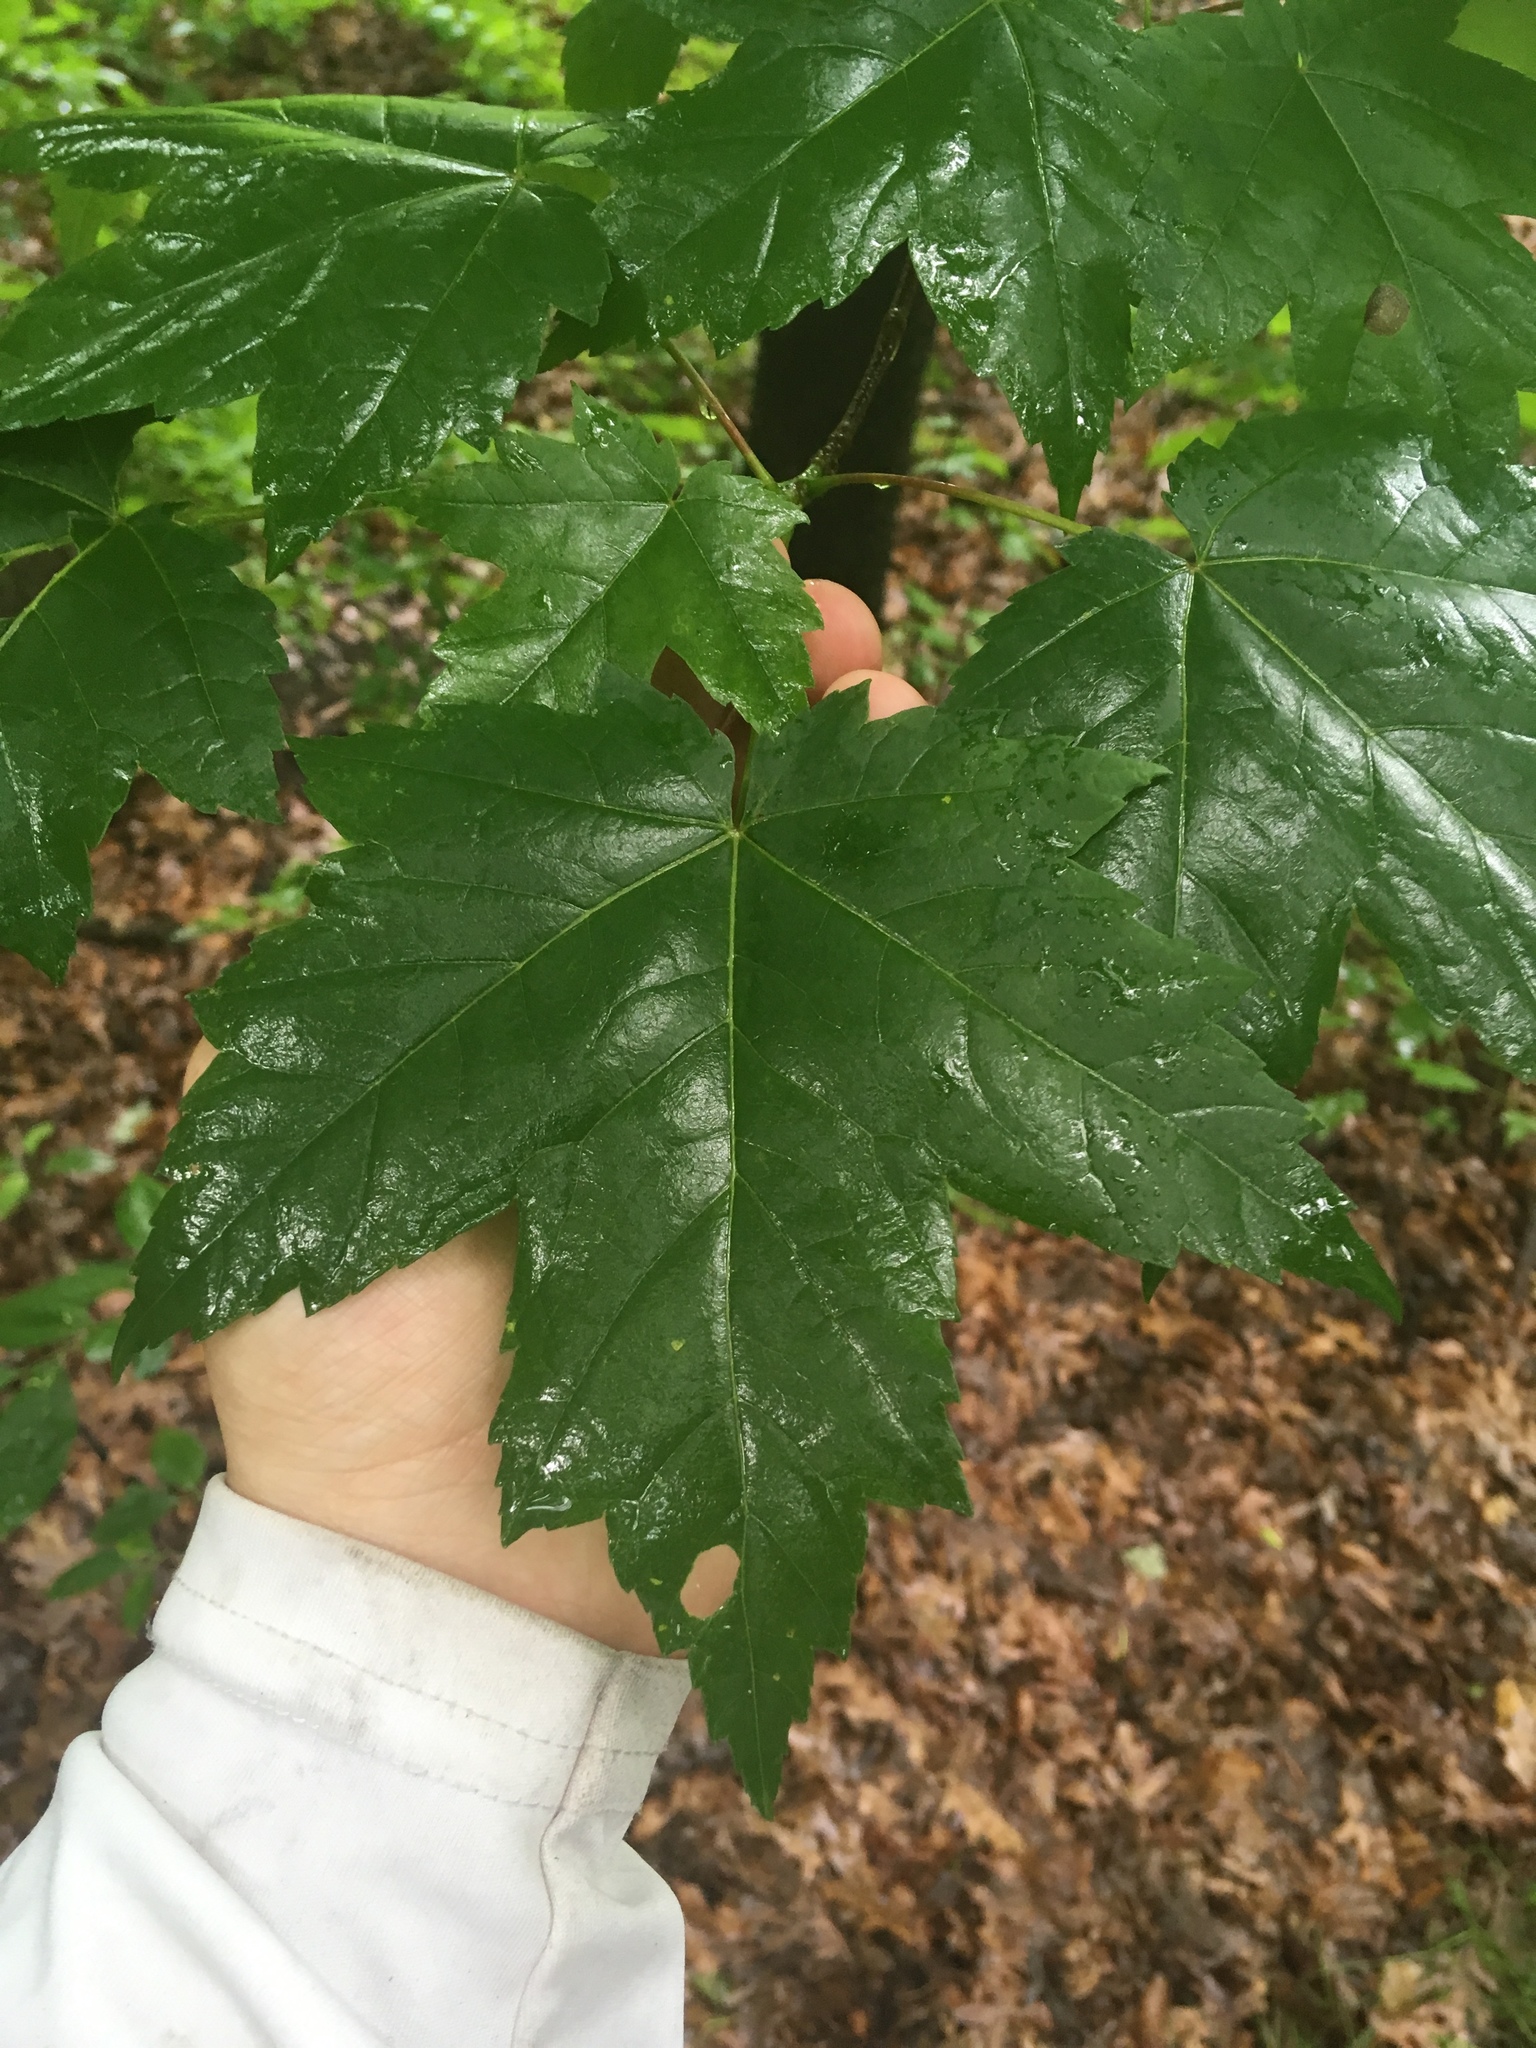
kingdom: Plantae
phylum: Tracheophyta
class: Magnoliopsida
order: Sapindales
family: Sapindaceae
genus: Acer
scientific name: Acer rubrum
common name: Red maple
